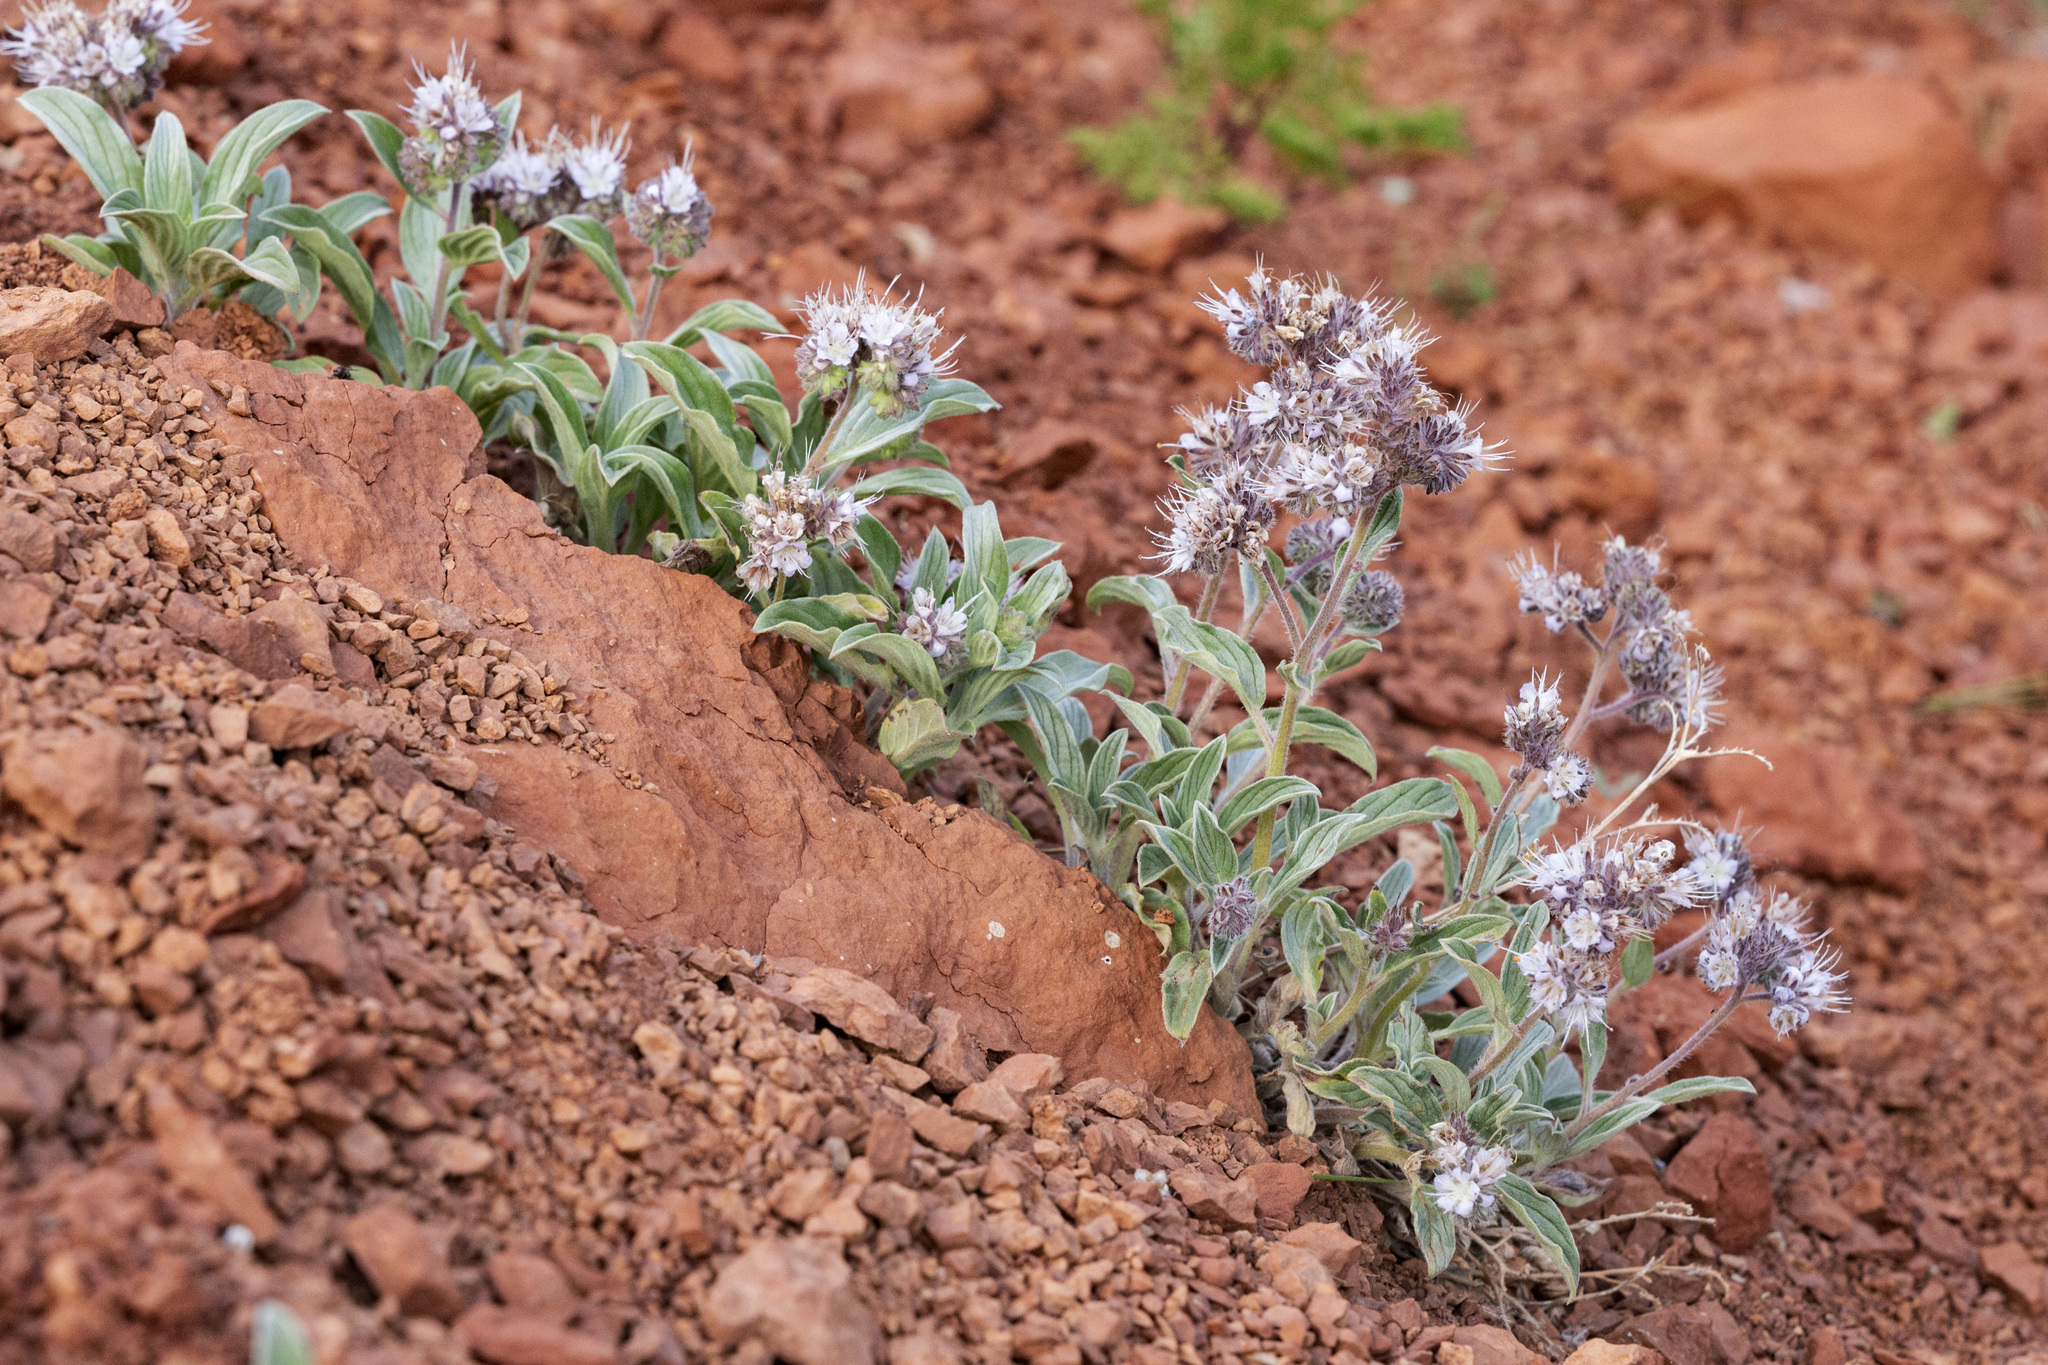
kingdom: Plantae
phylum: Tracheophyta
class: Magnoliopsida
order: Boraginales
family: Hydrophyllaceae
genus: Phacelia
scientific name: Phacelia hastata
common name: Silver-leaved phacelia
